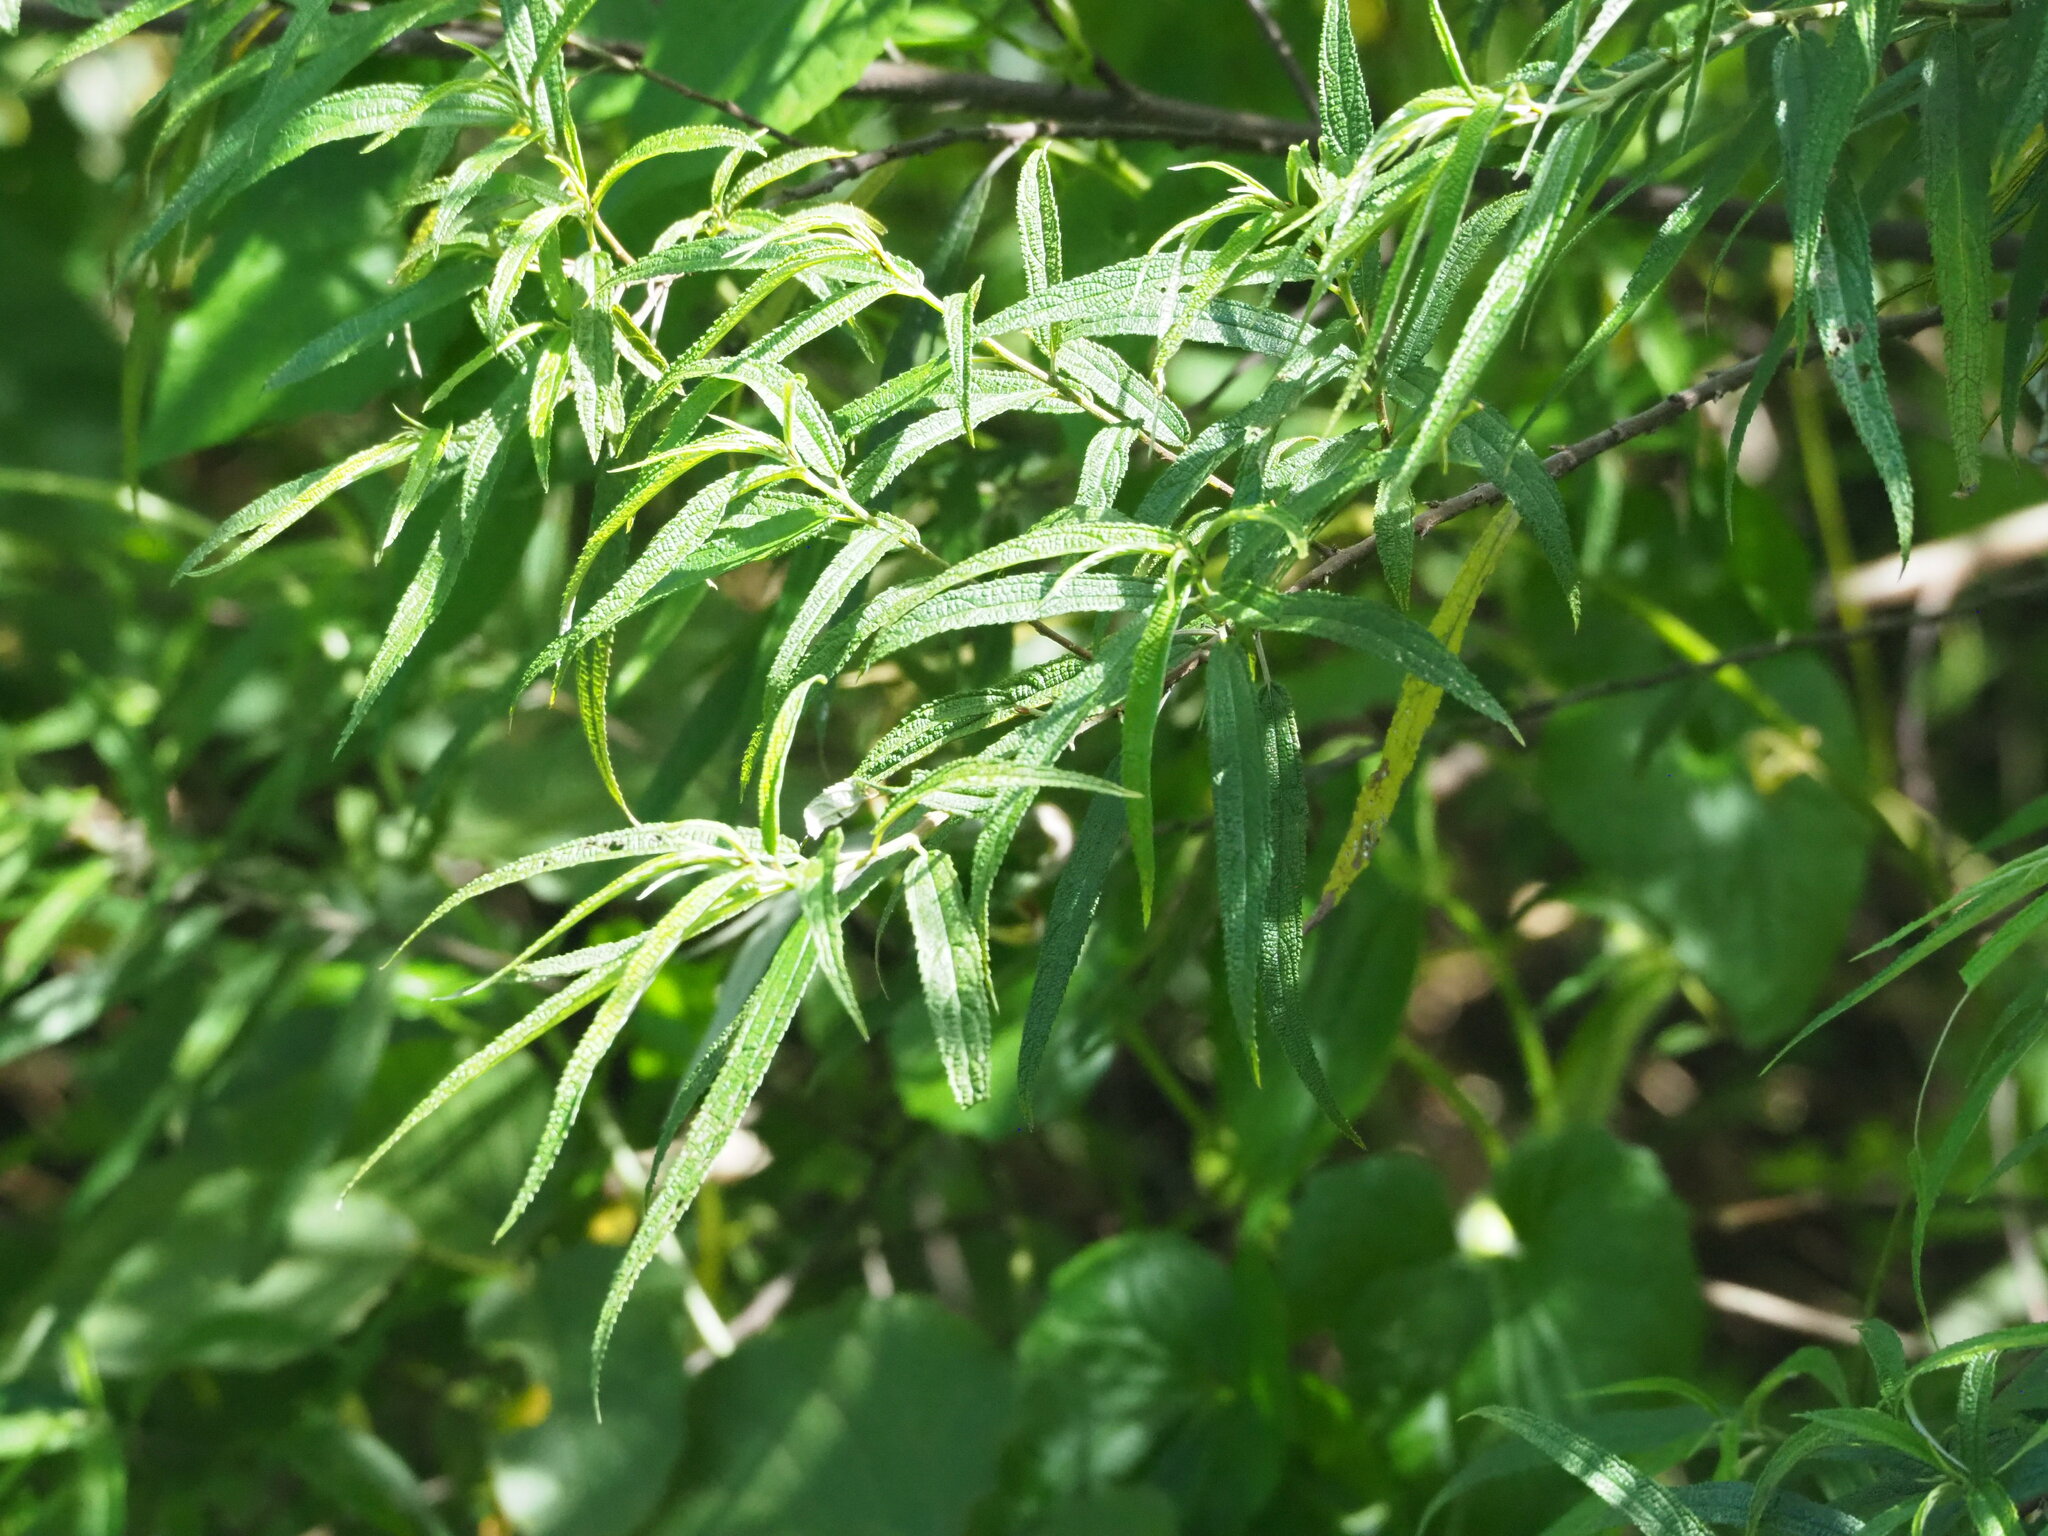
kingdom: Plantae
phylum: Tracheophyta
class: Magnoliopsida
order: Rosales
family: Urticaceae
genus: Debregeasia
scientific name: Debregeasia orientalis
